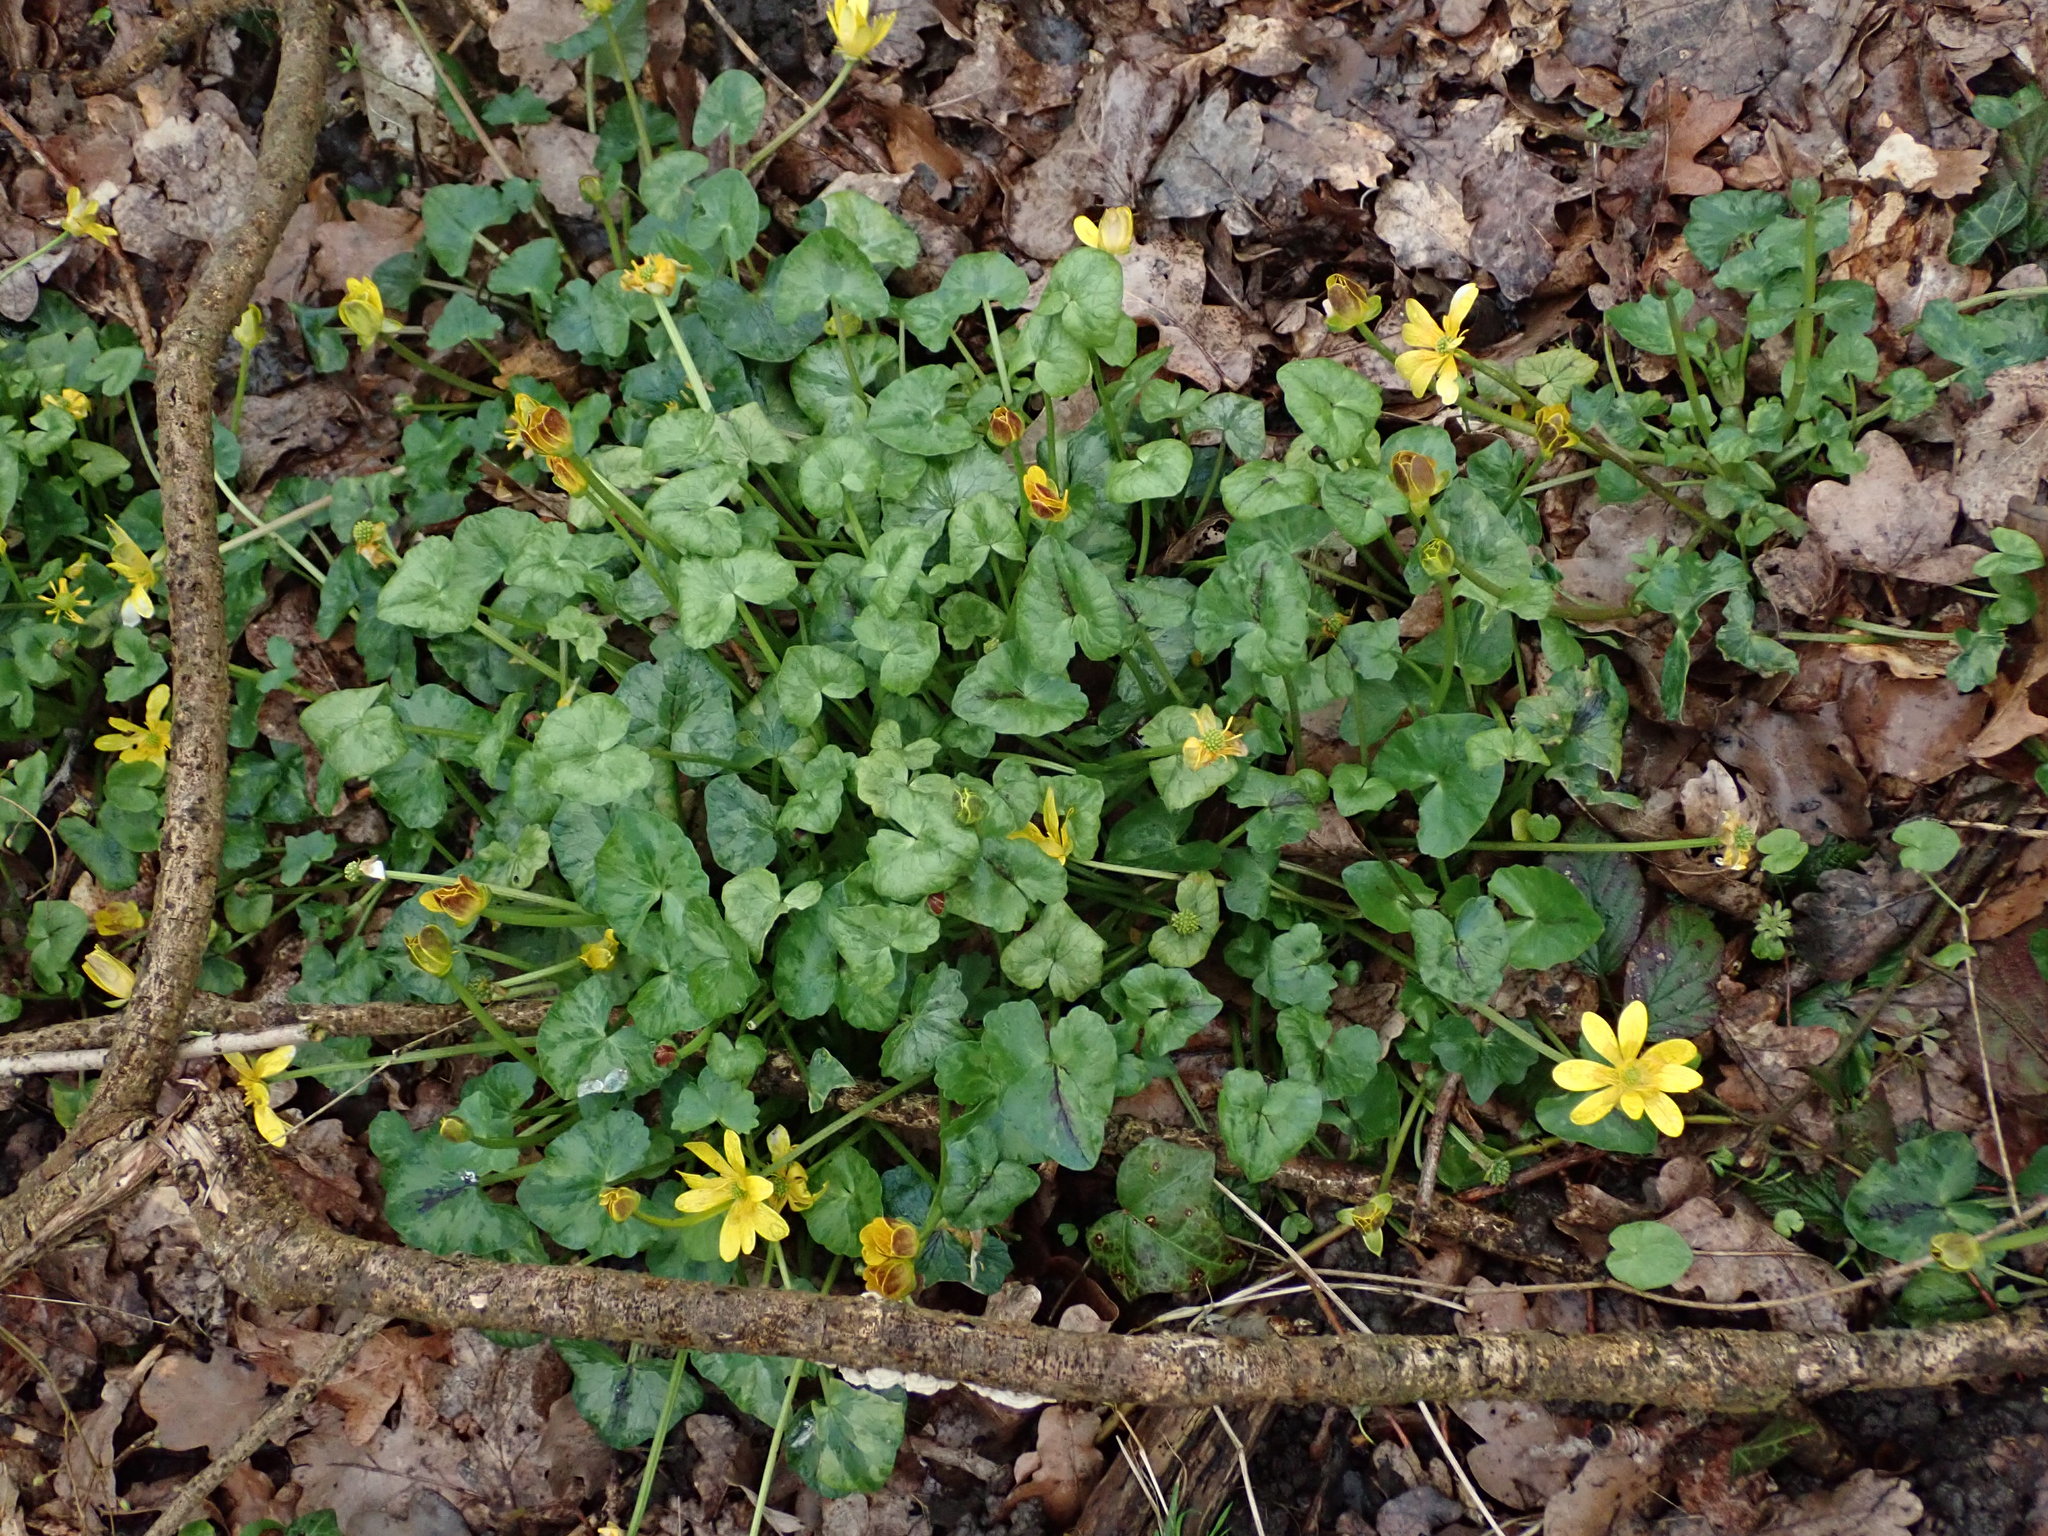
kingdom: Plantae
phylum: Tracheophyta
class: Magnoliopsida
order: Ranunculales
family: Ranunculaceae
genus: Ficaria
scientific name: Ficaria verna
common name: Lesser celandine
